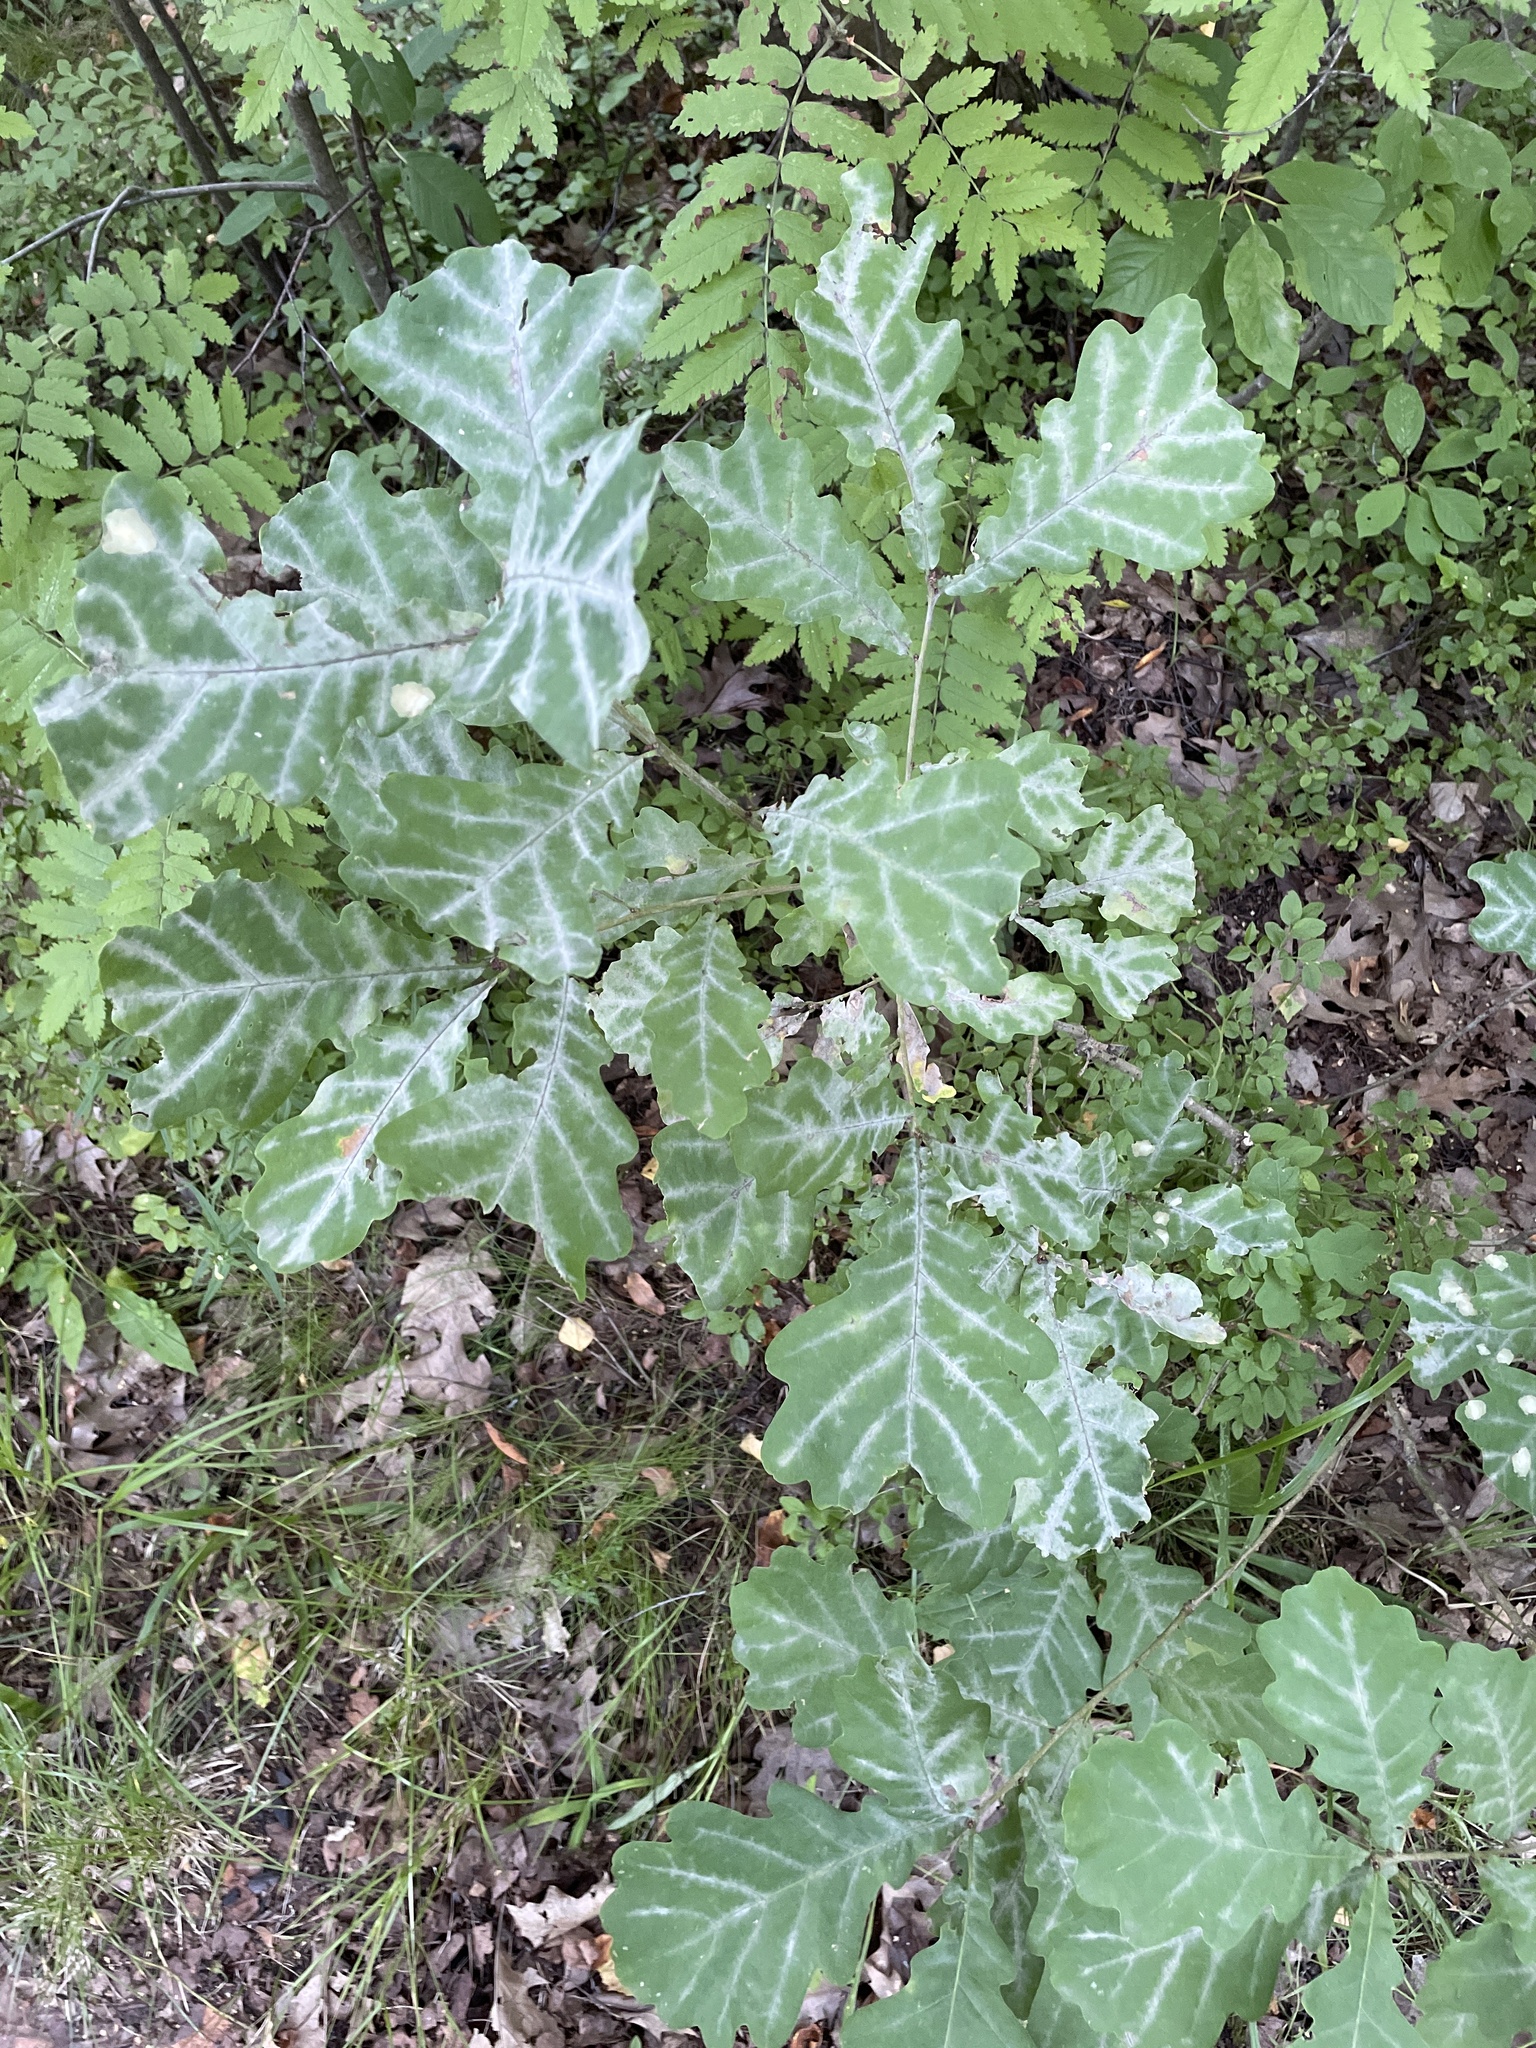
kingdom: Fungi
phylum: Ascomycota
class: Leotiomycetes
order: Helotiales
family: Erysiphaceae
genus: Erysiphe
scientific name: Erysiphe alphitoides
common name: Oak mildew
